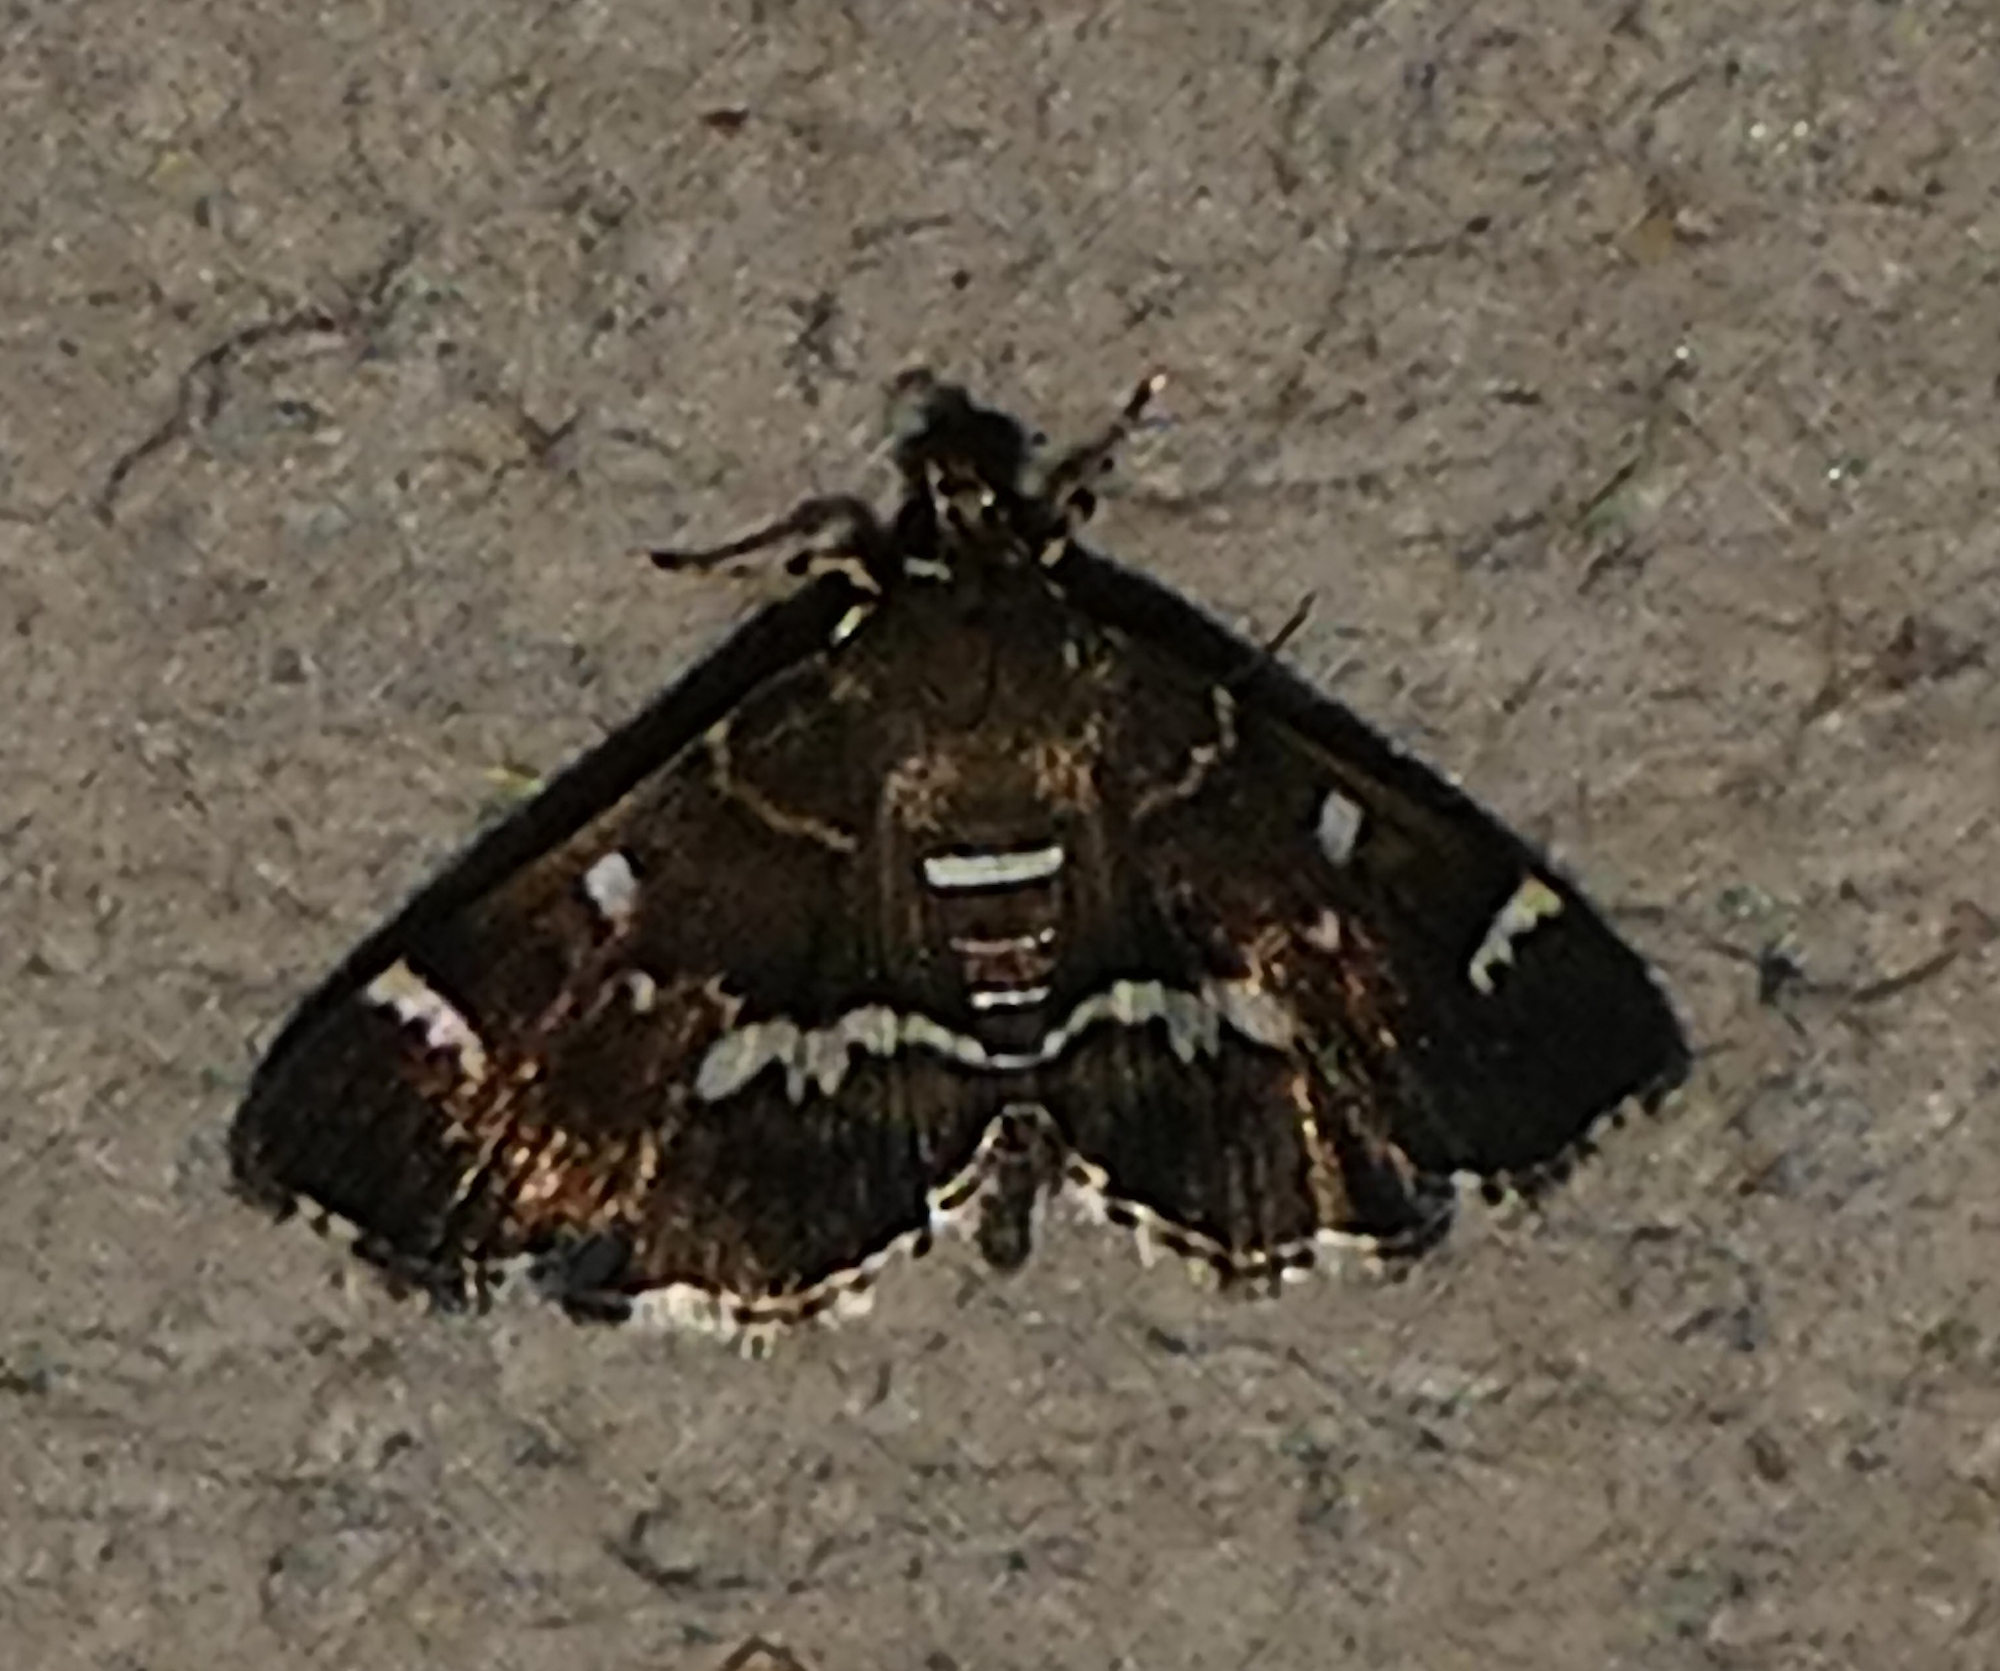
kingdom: Animalia
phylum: Arthropoda
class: Insecta
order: Lepidoptera
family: Crambidae
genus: Hymenia
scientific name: Hymenia perspectalis
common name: Spotted beet webworm
